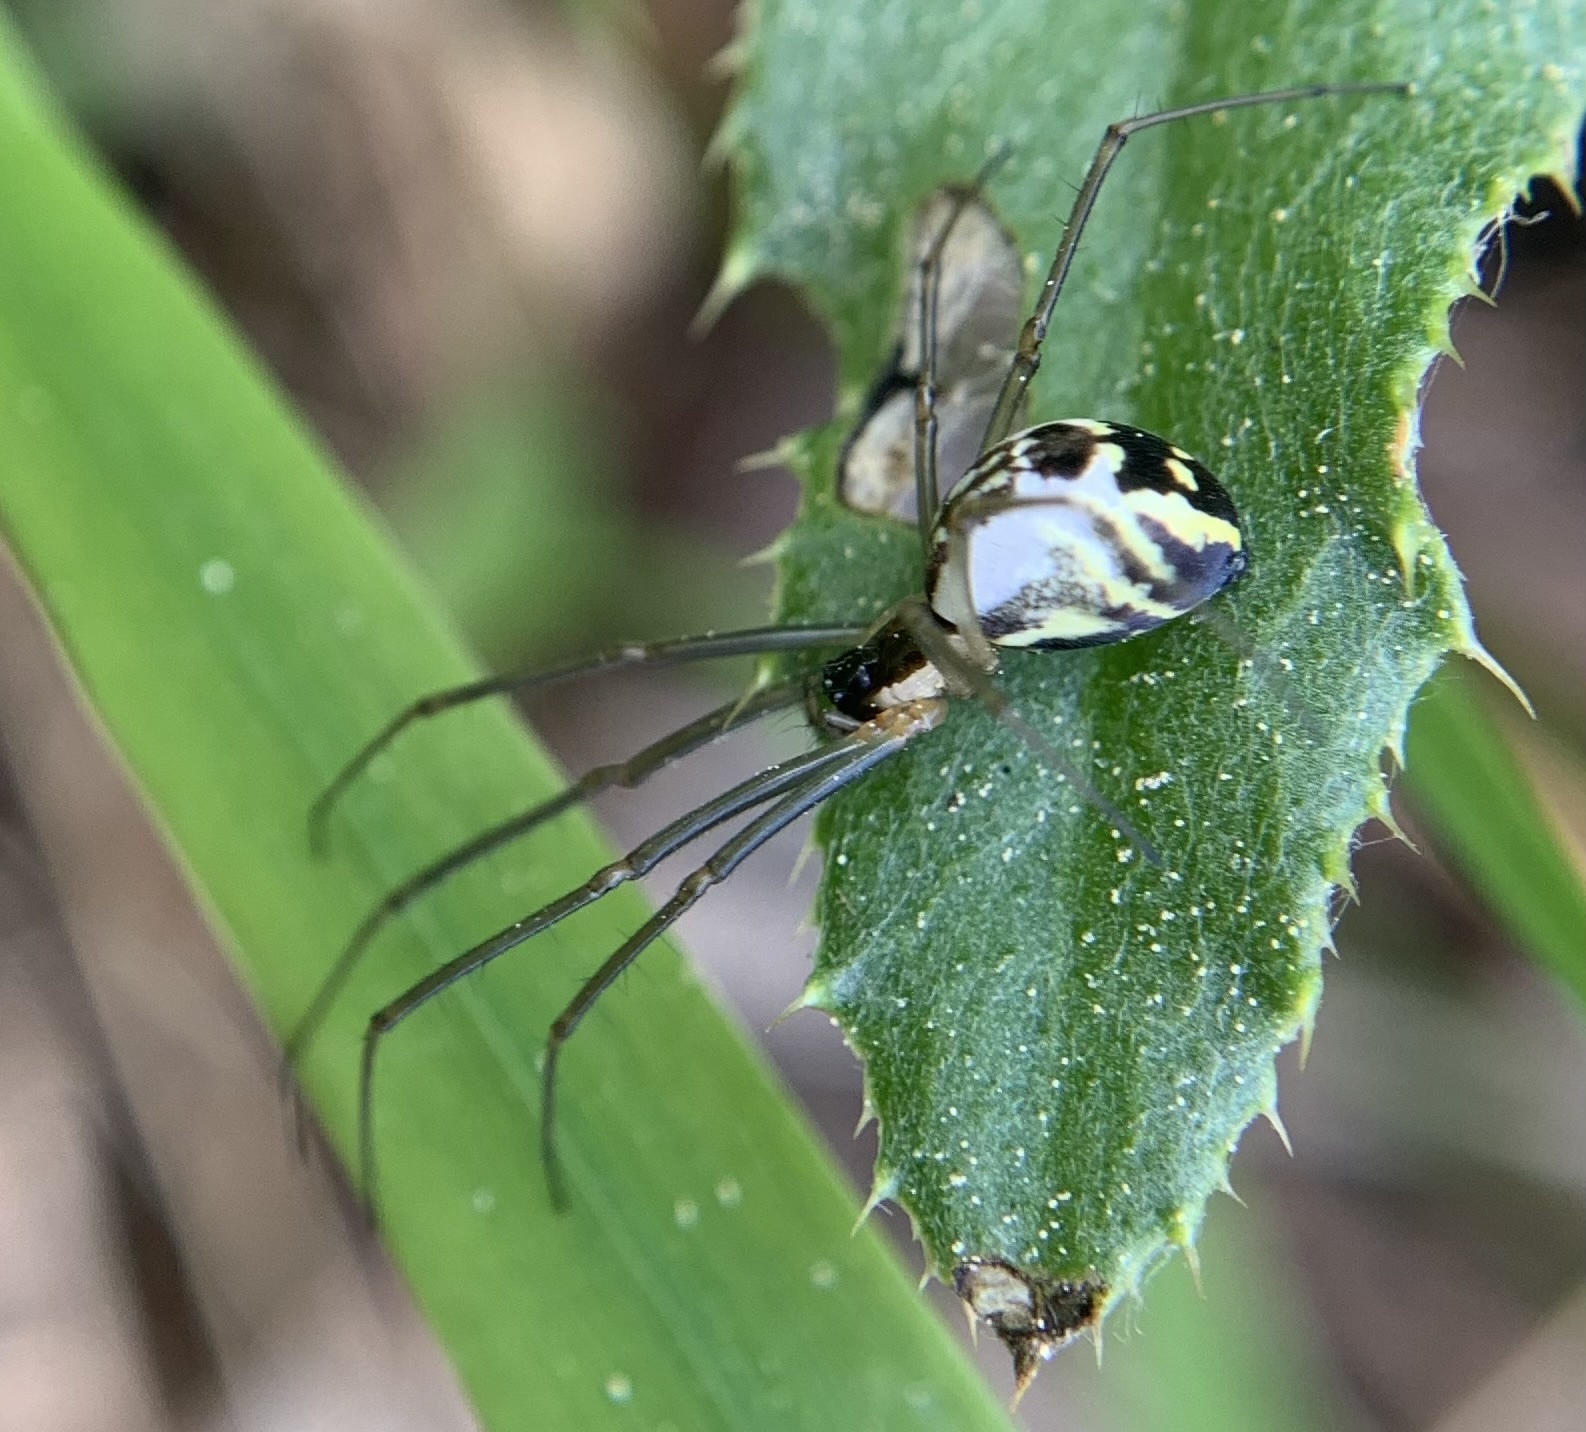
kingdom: Animalia
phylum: Arthropoda
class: Arachnida
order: Araneae
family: Linyphiidae
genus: Neriene
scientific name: Neriene radiata
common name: Filmy dome spider
